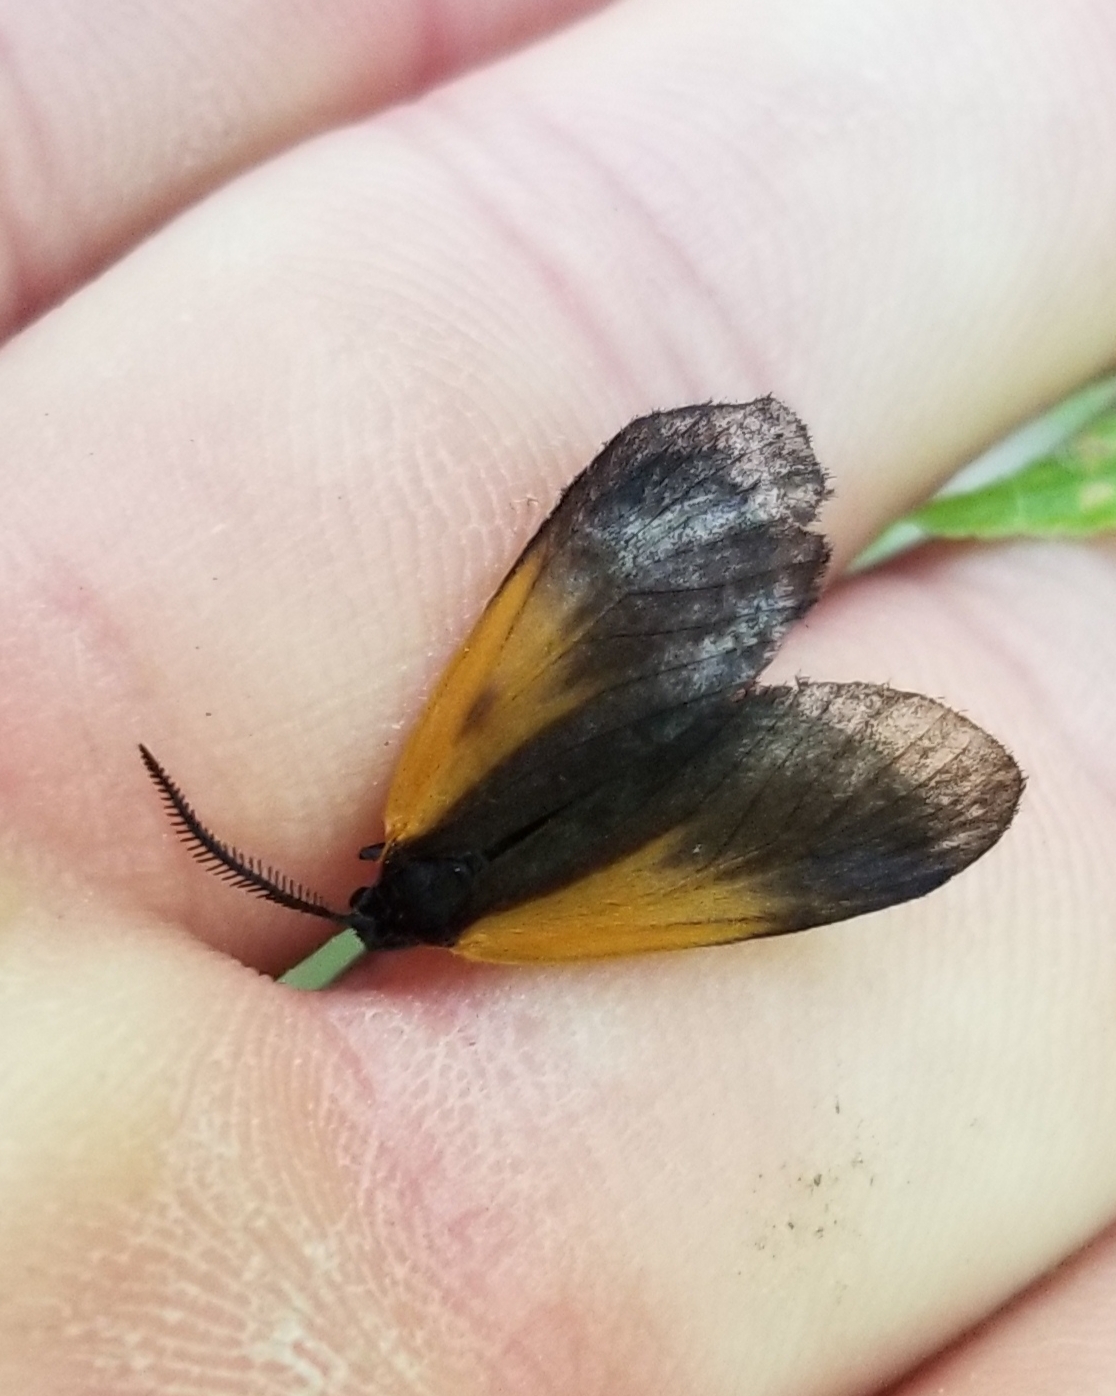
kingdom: Animalia
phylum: Arthropoda
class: Insecta
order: Lepidoptera
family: Zygaenidae
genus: Malthaca
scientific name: Malthaca dimidiata
